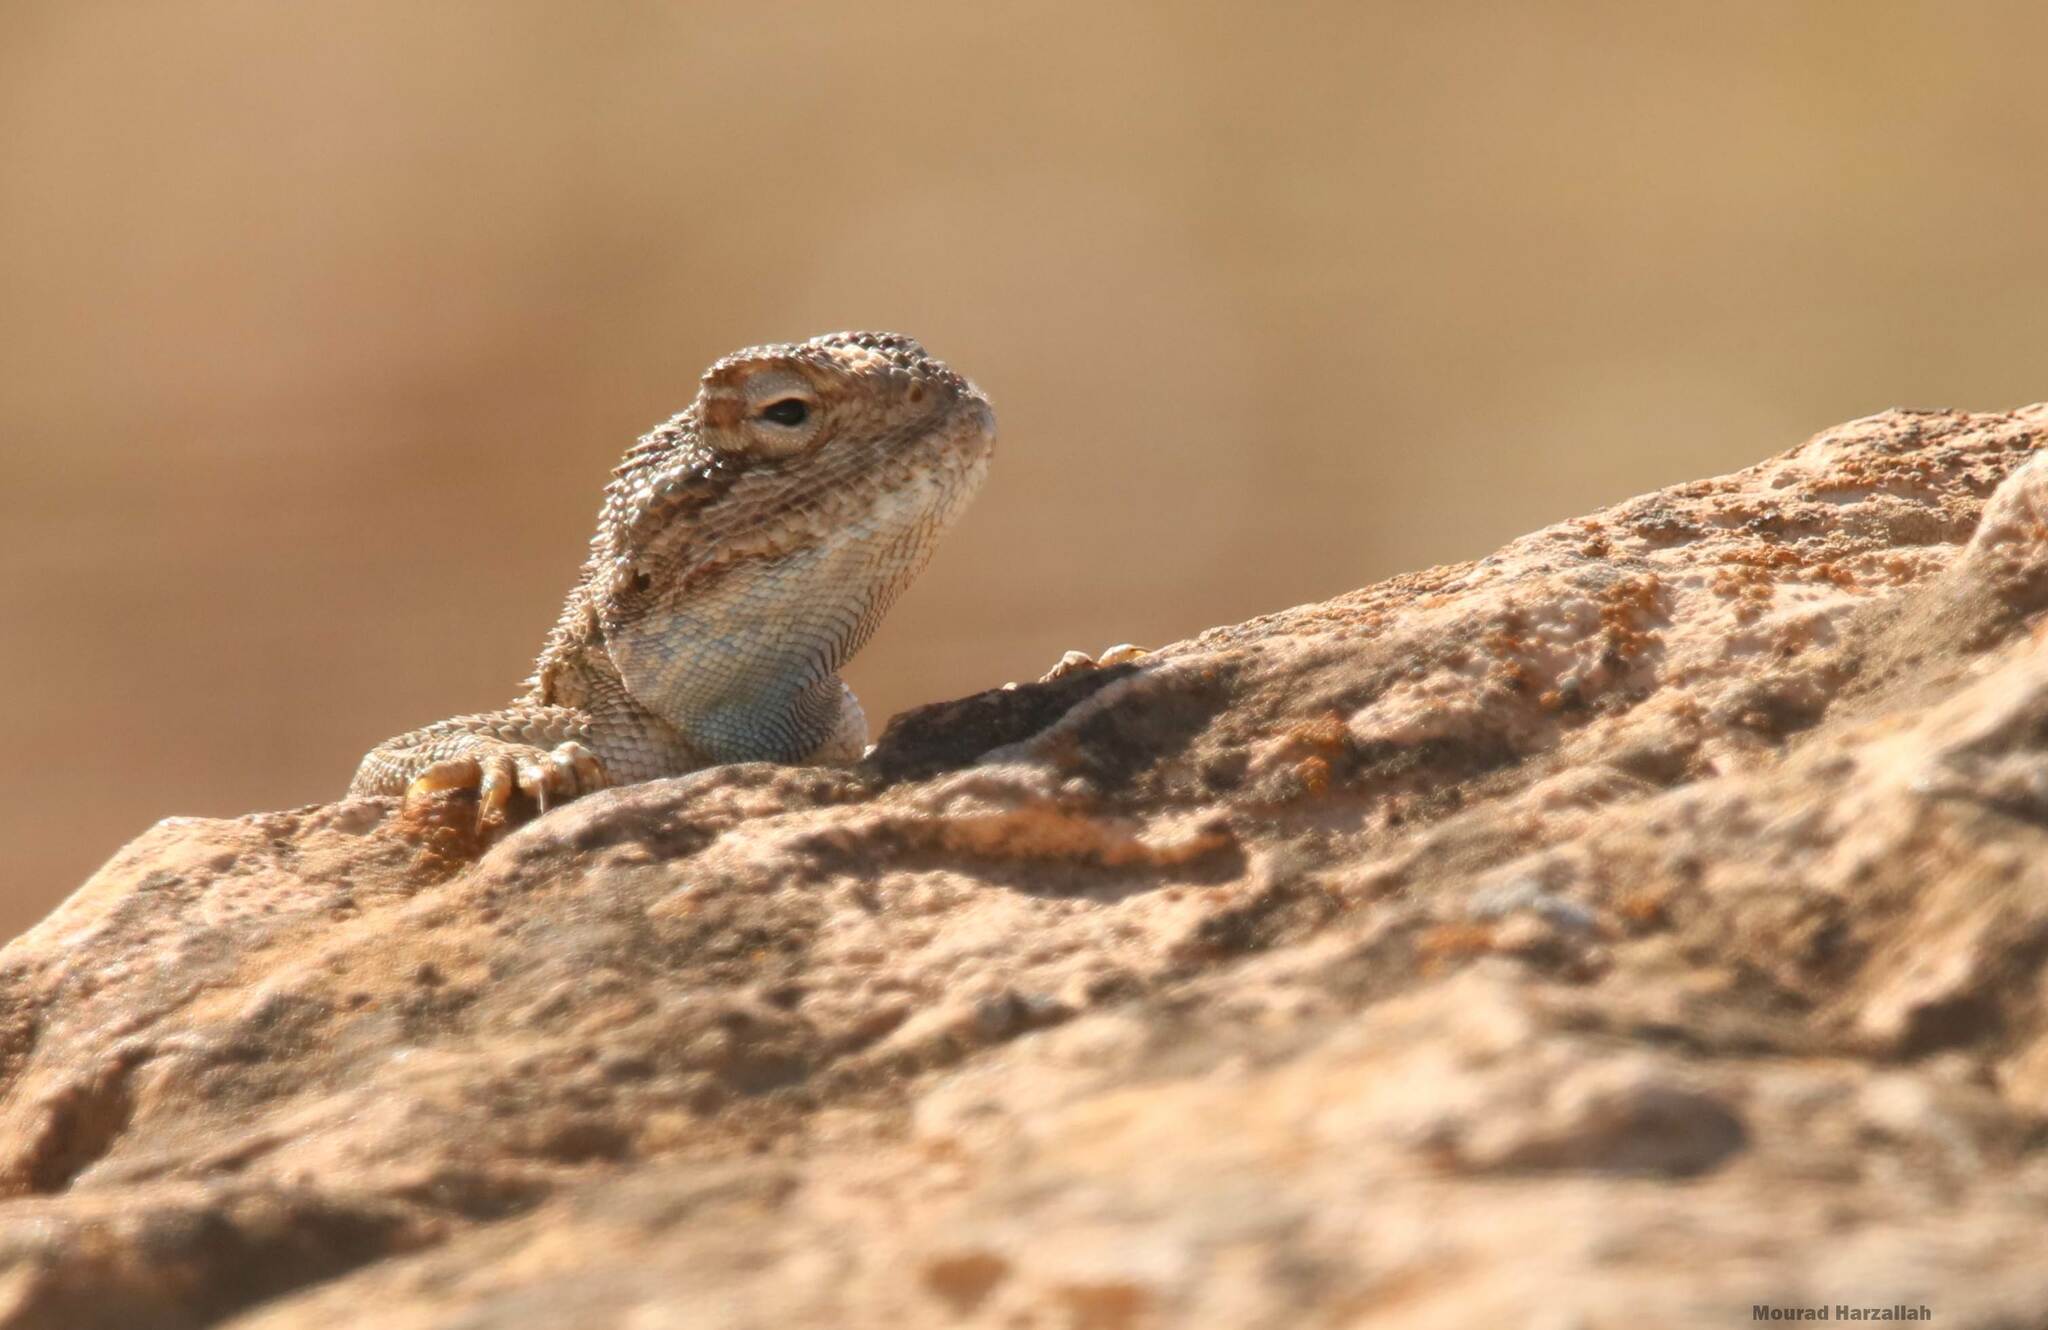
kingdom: Animalia
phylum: Chordata
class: Squamata
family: Agamidae
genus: Trapelus
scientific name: Trapelus mutabilis
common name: Desert agama
